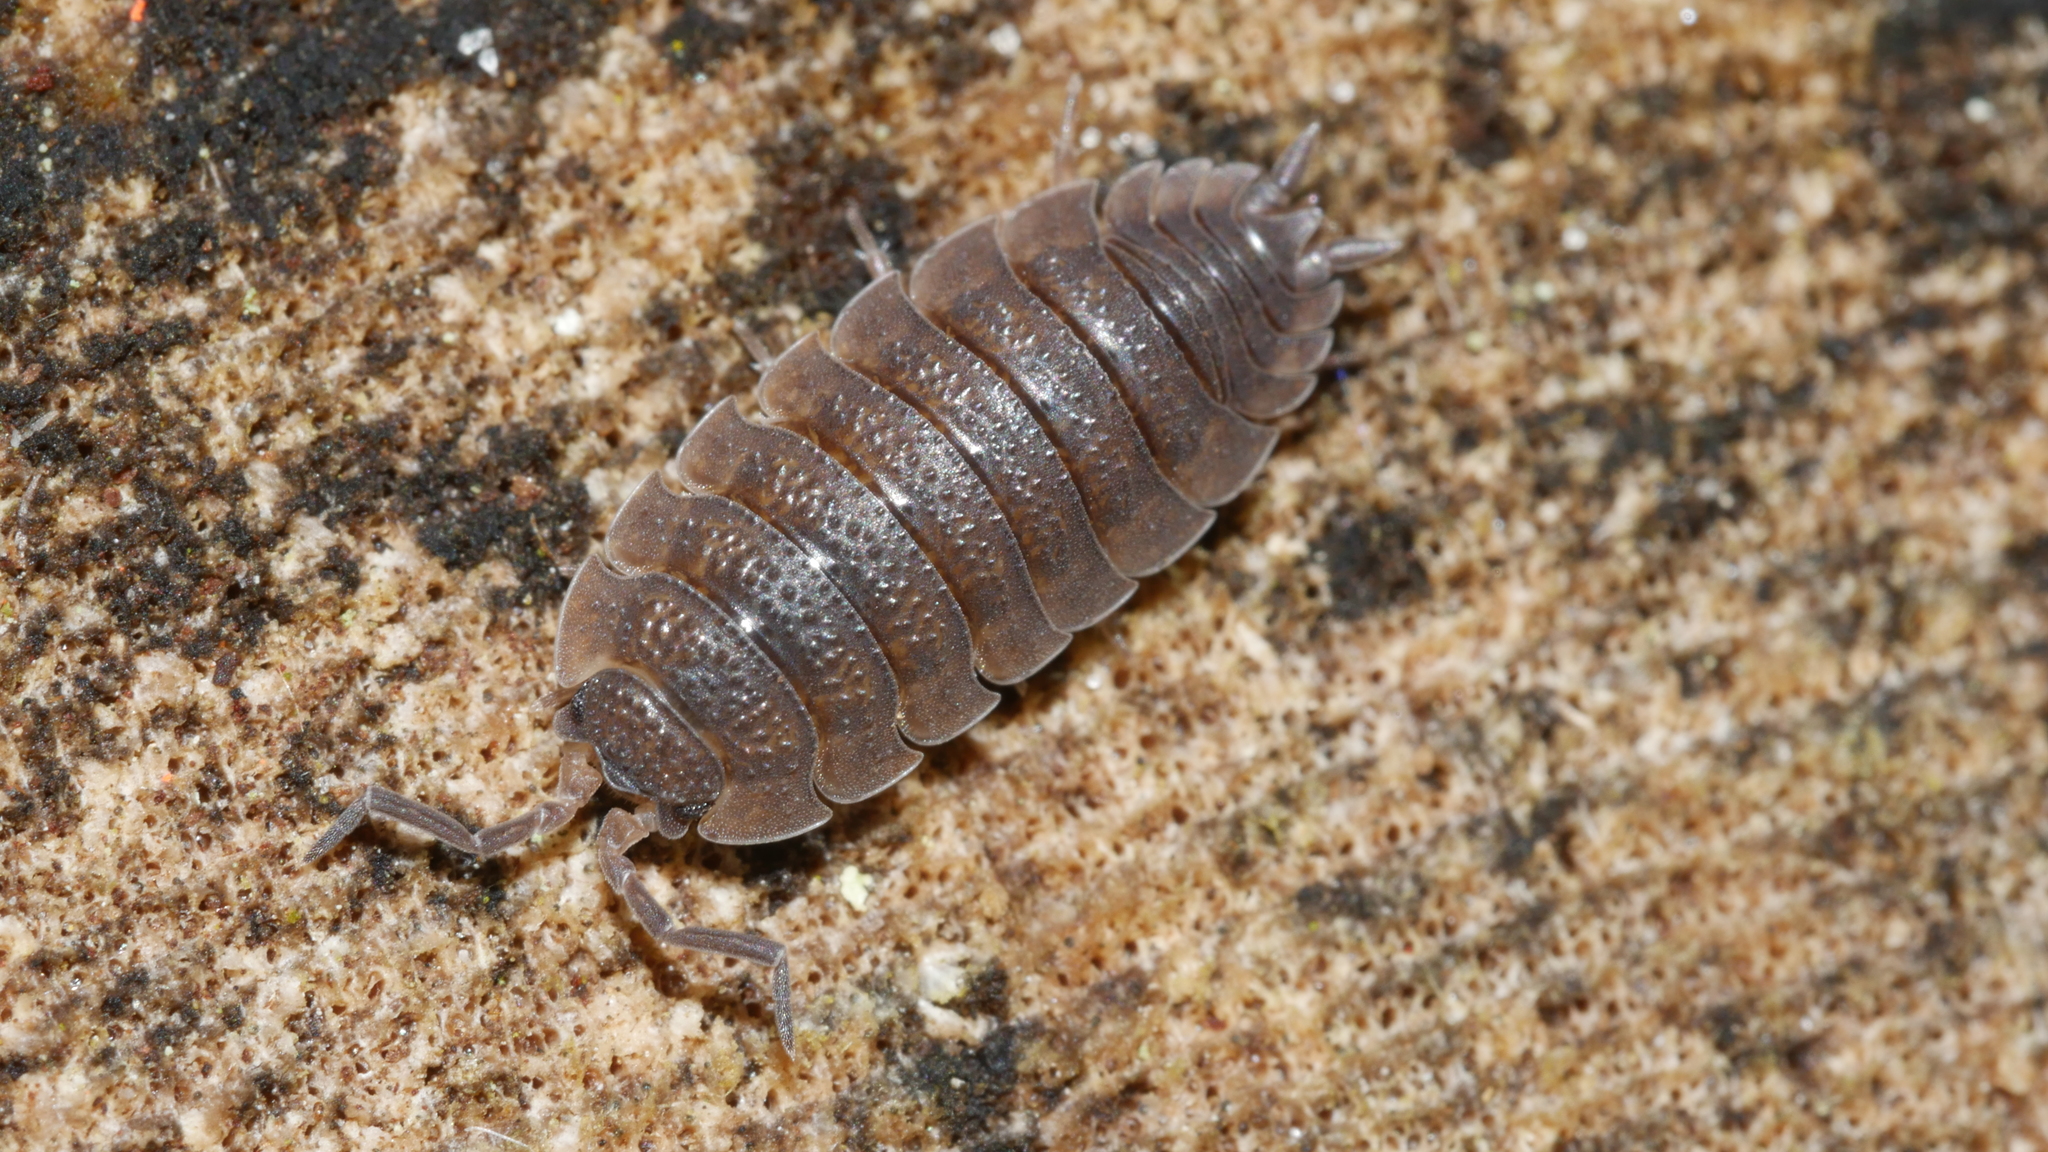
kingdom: Animalia
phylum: Arthropoda
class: Malacostraca
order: Isopoda
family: Porcellionidae
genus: Porcellio
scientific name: Porcellio scaber
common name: Common rough woodlouse
